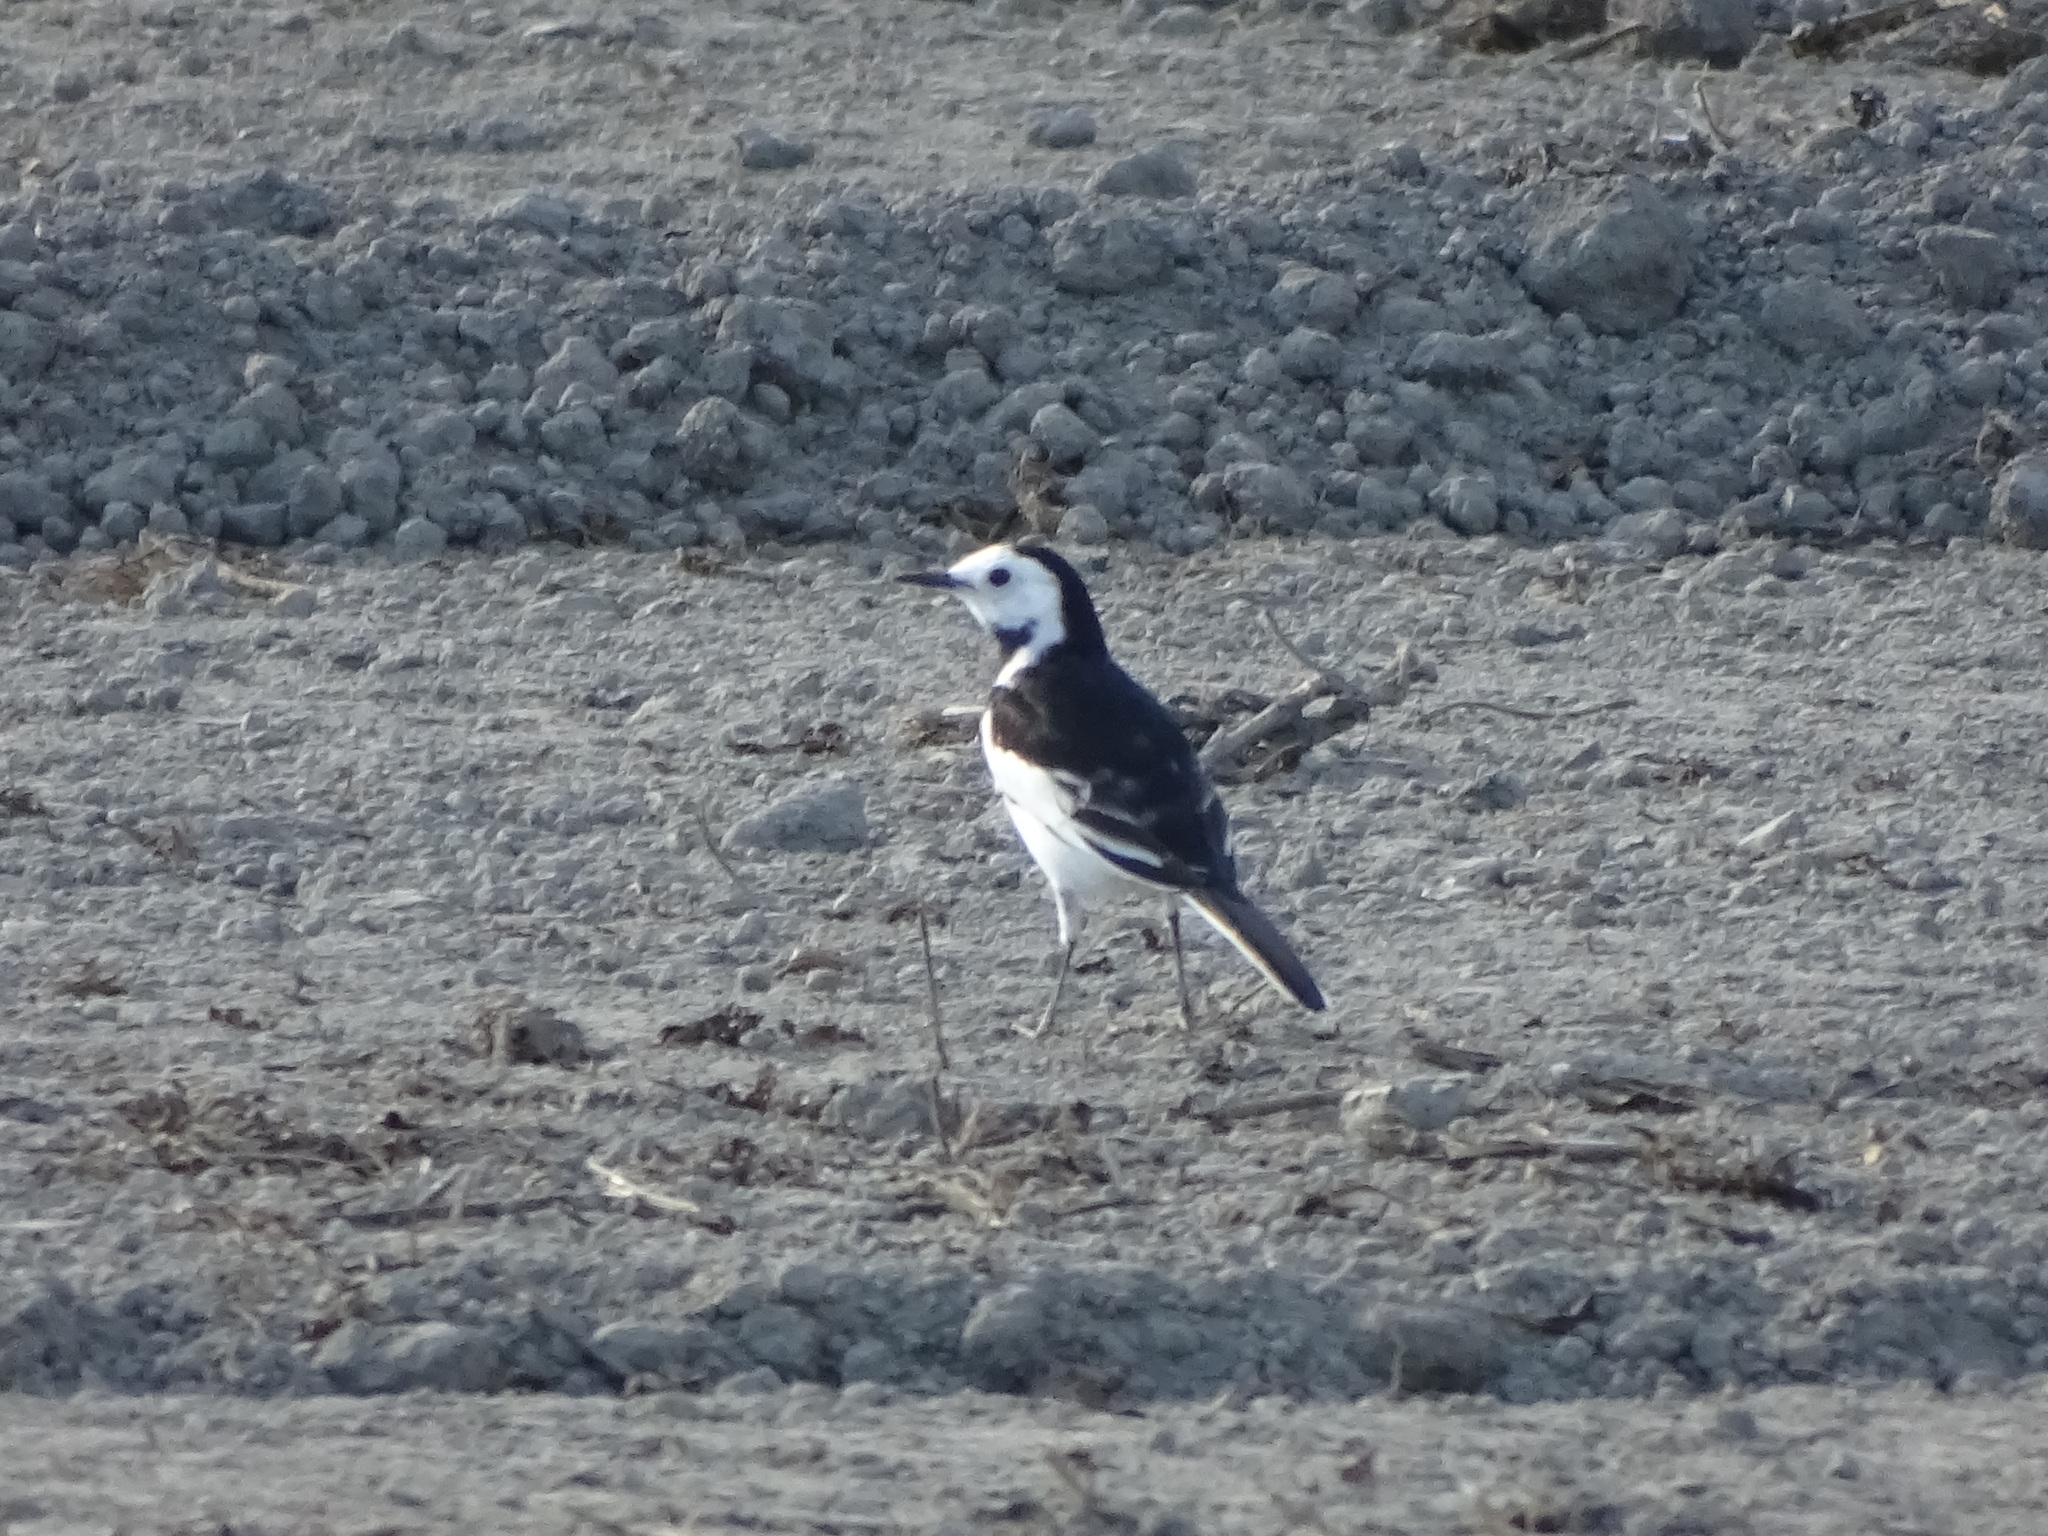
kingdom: Animalia
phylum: Chordata
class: Aves
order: Passeriformes
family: Motacillidae
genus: Motacilla
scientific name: Motacilla alba
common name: White wagtail
